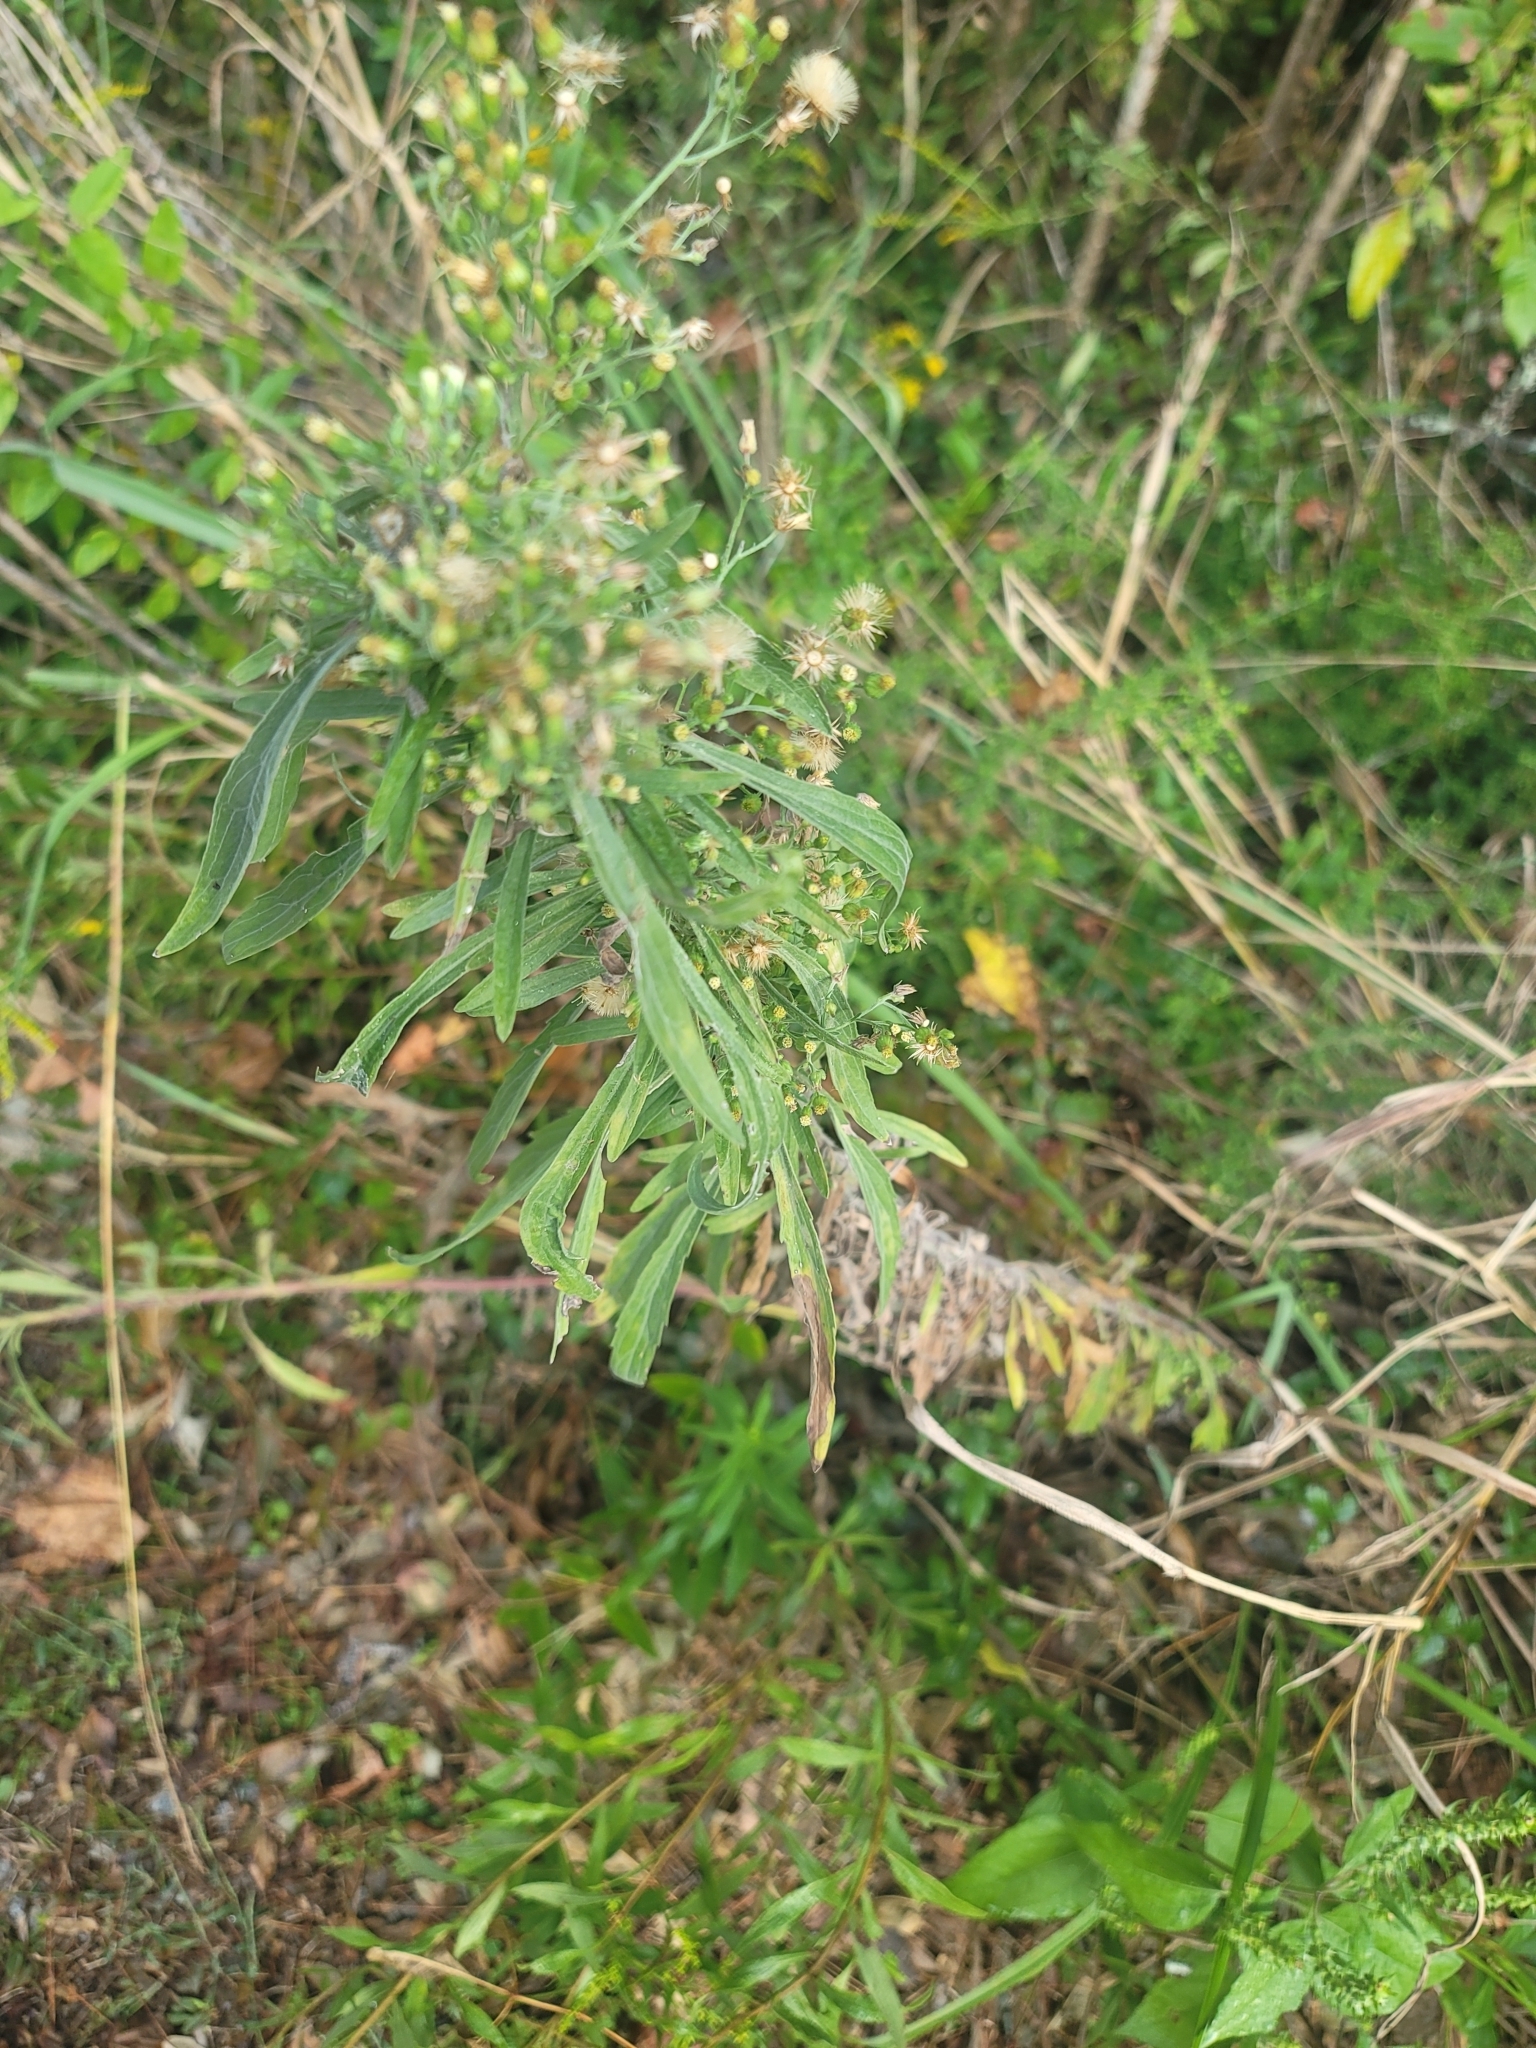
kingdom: Plantae
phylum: Tracheophyta
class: Magnoliopsida
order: Asterales
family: Asteraceae
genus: Erigeron
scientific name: Erigeron canadensis
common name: Canadian fleabane
